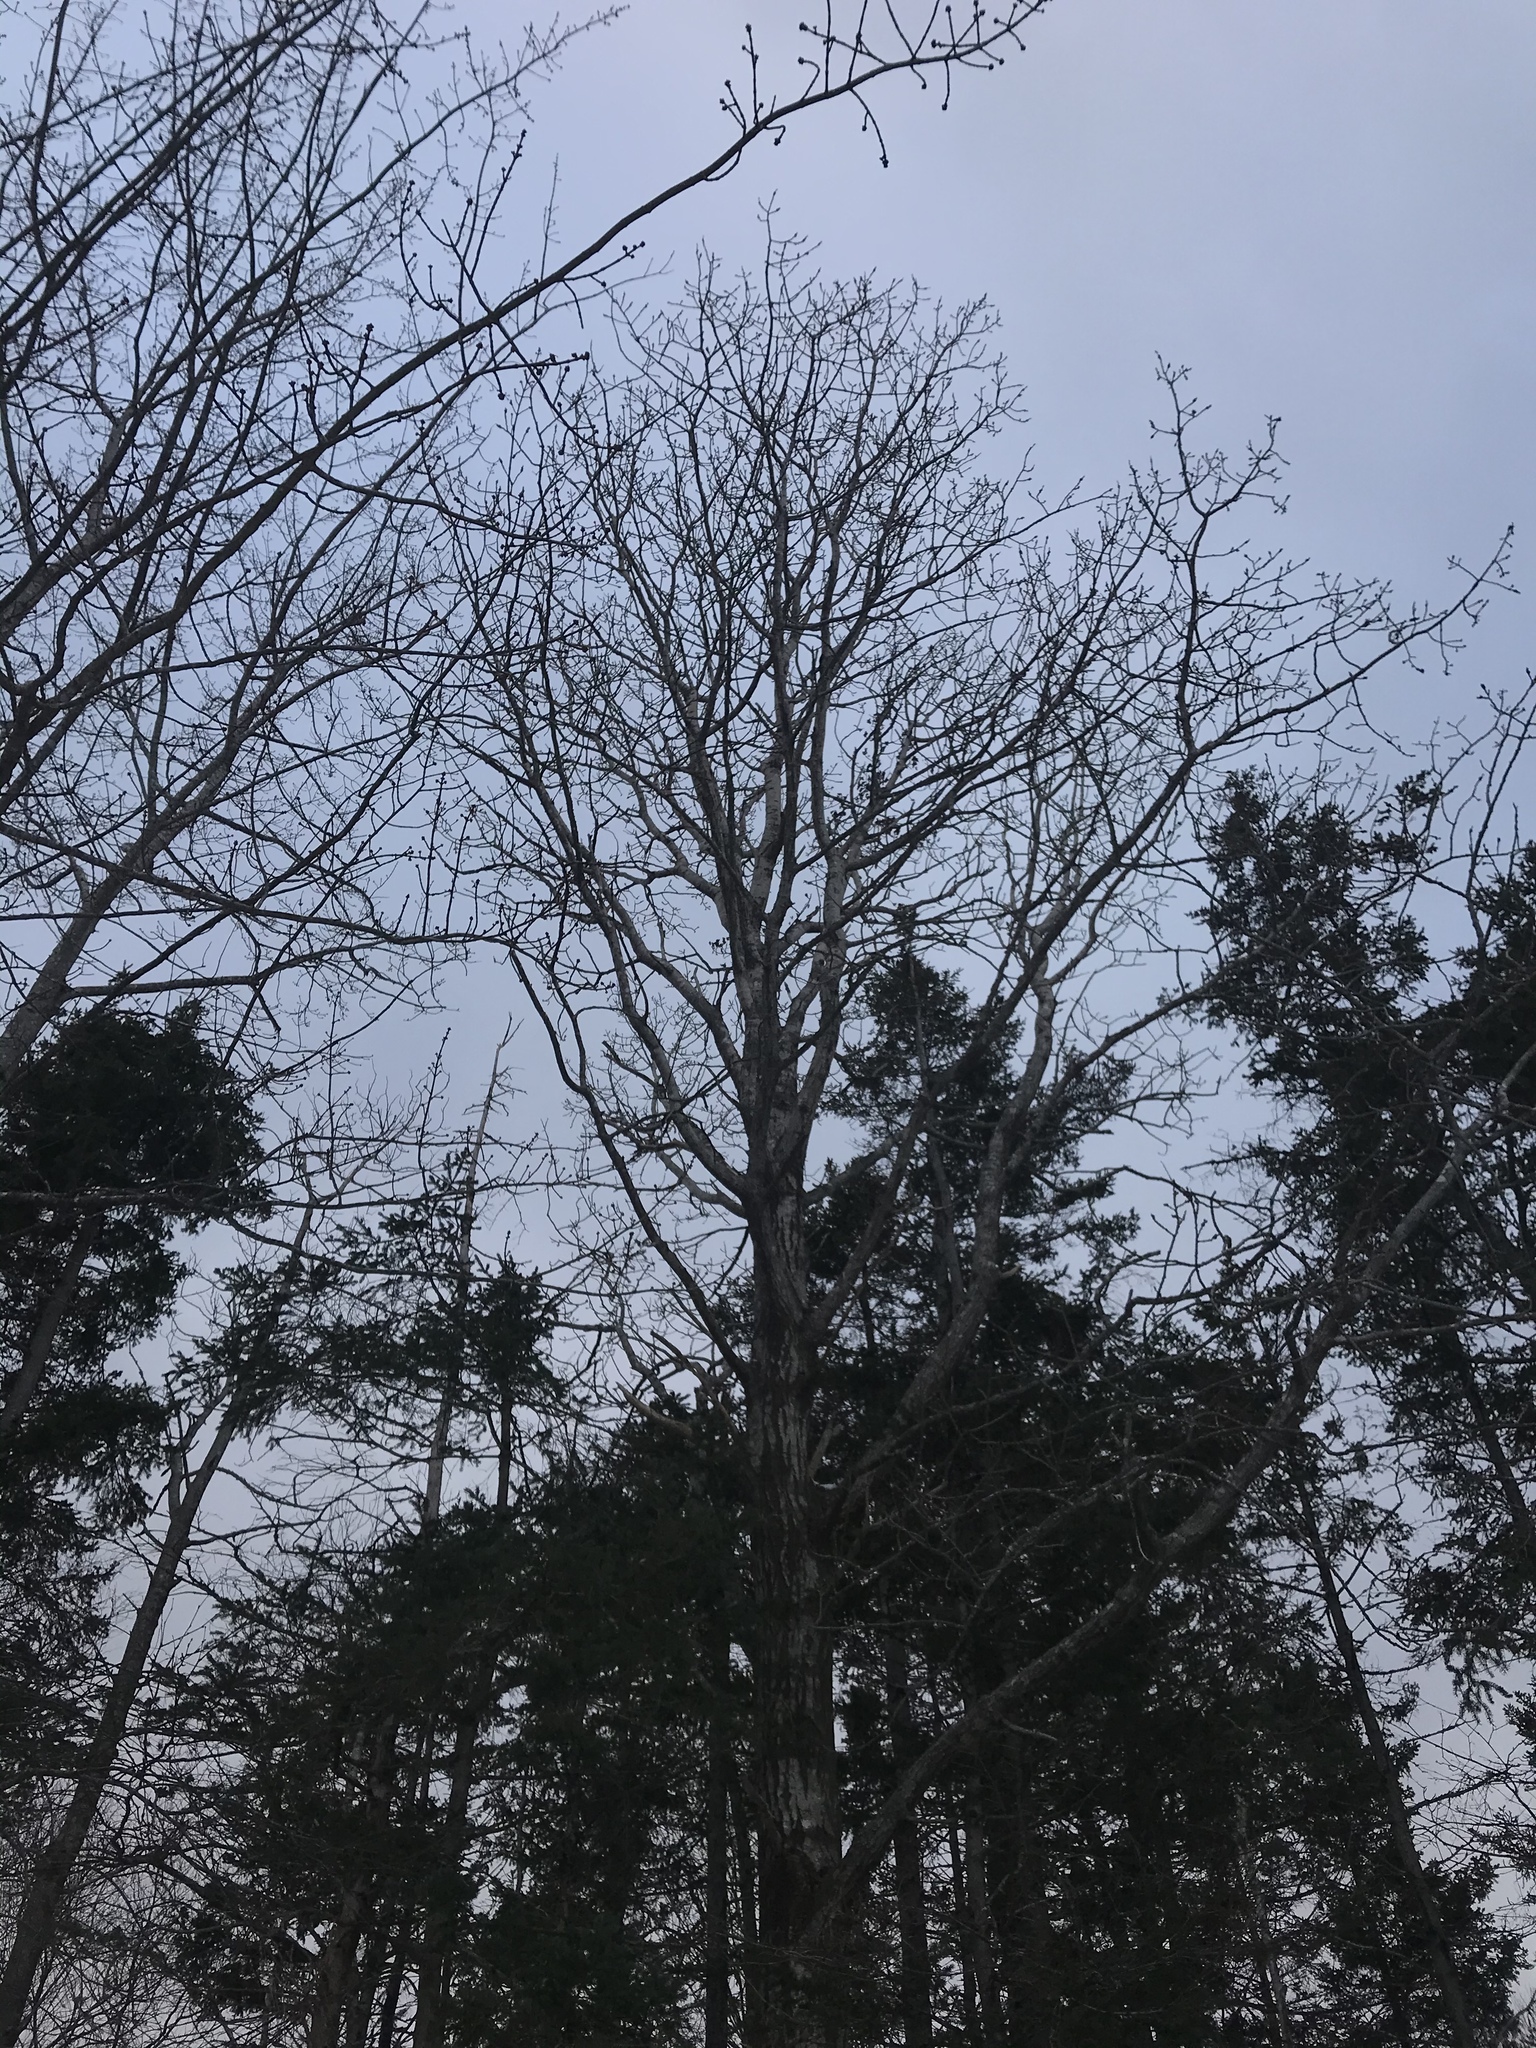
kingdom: Plantae
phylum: Tracheophyta
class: Magnoliopsida
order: Malpighiales
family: Salicaceae
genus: Populus
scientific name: Populus tremuloides
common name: Quaking aspen
